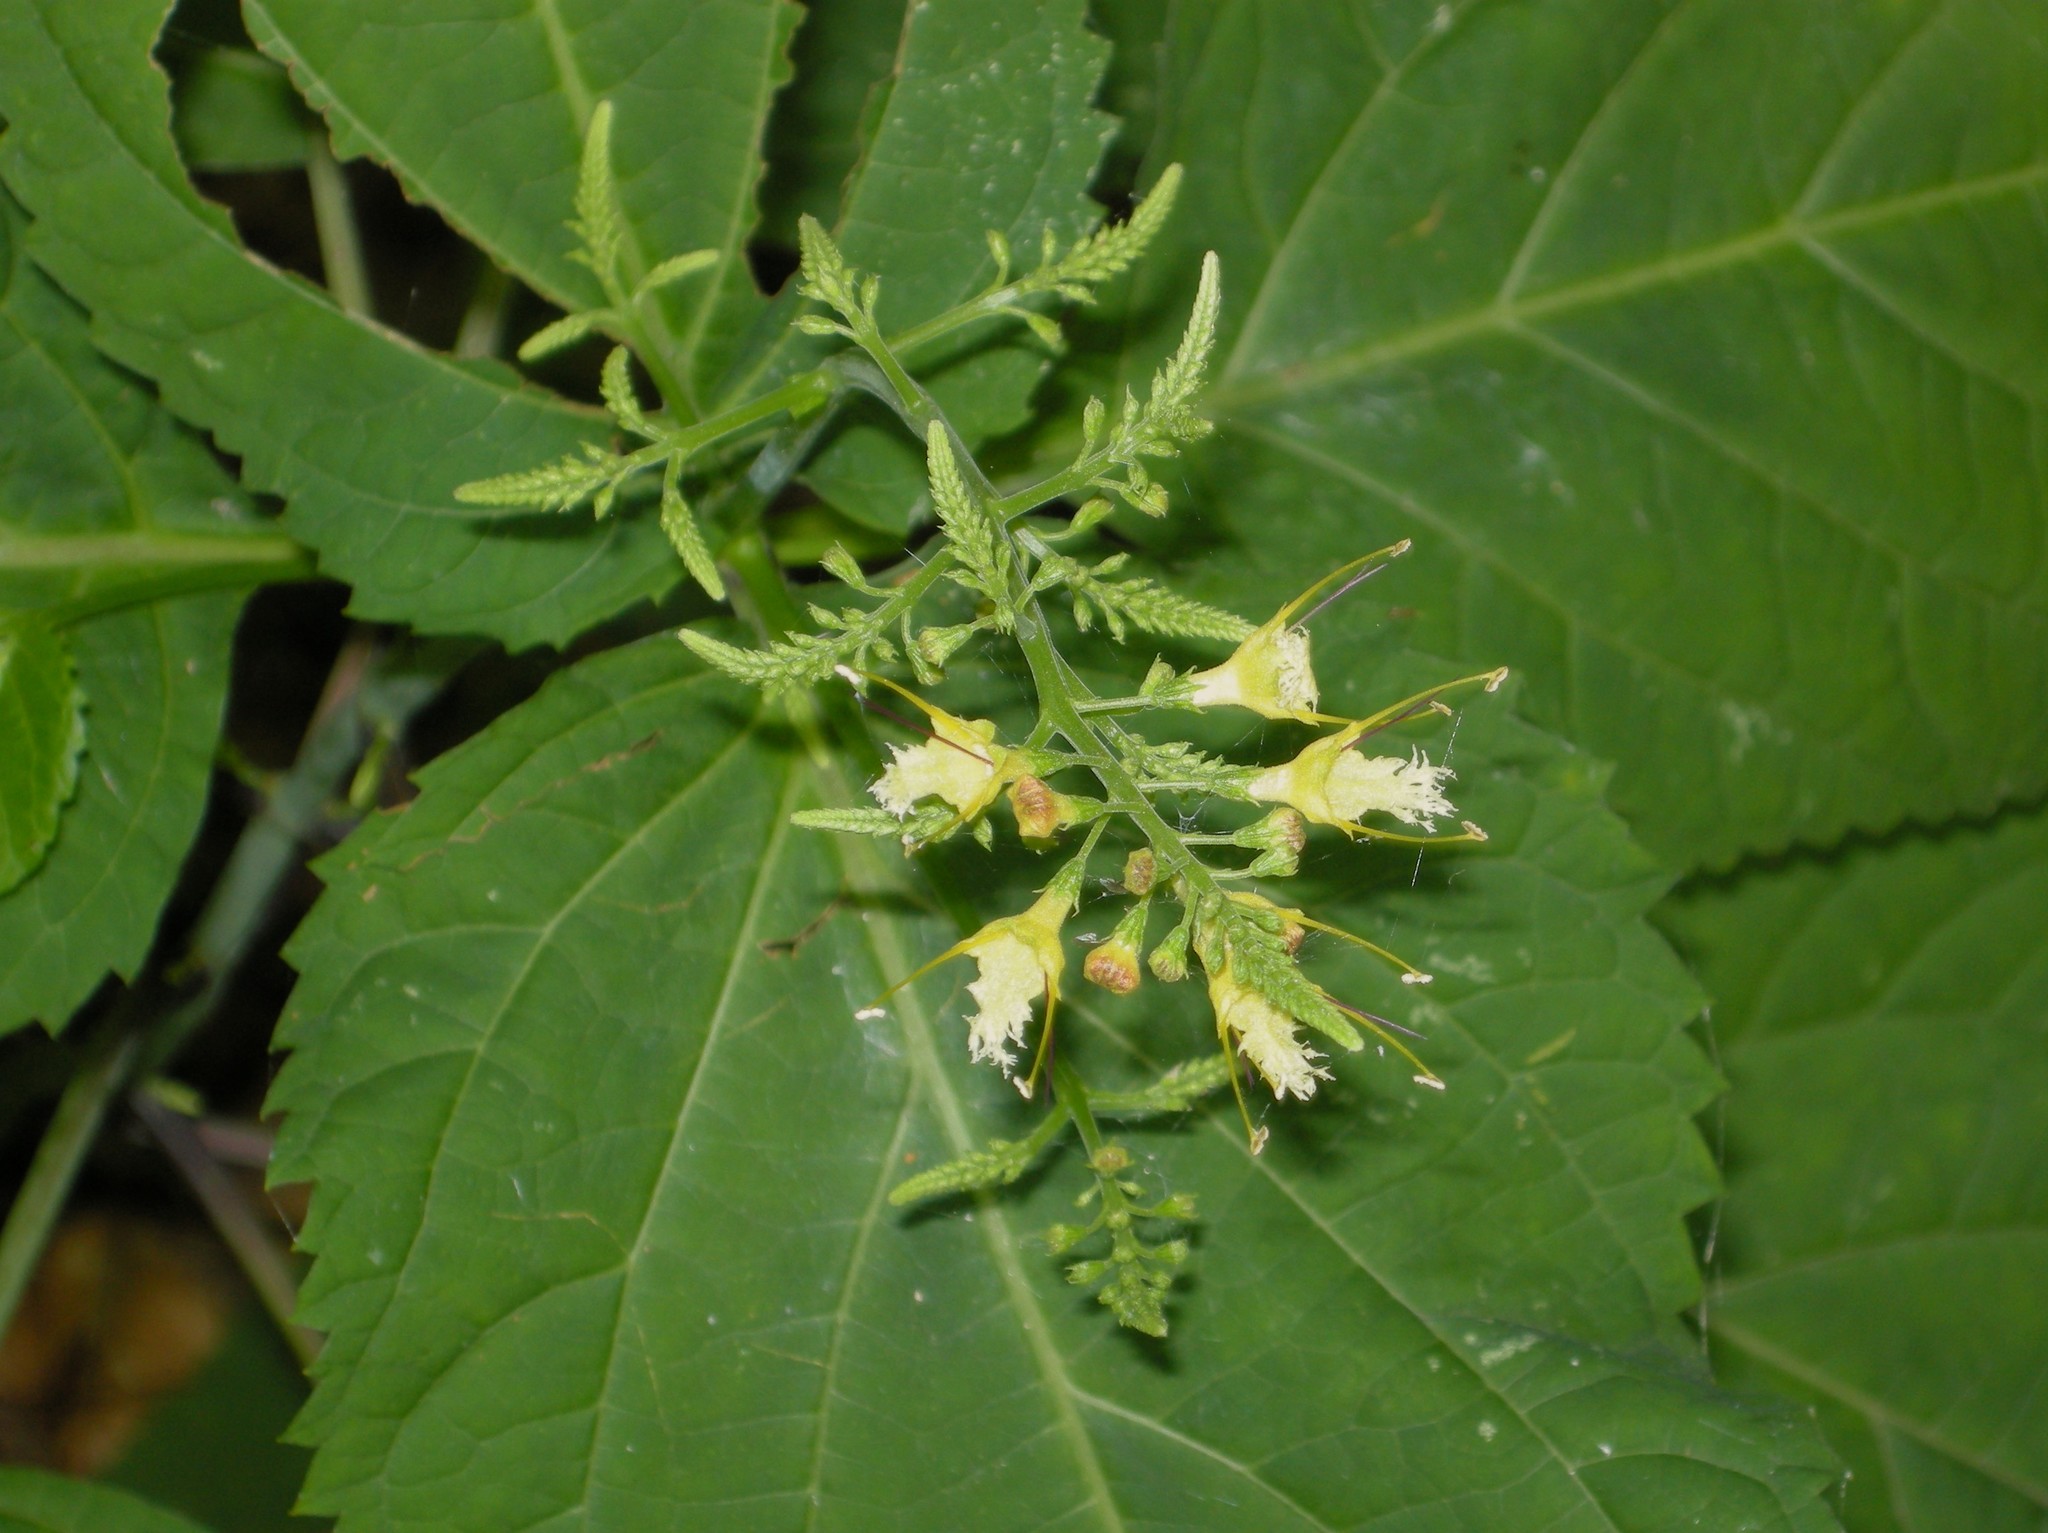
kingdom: Plantae
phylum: Tracheophyta
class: Magnoliopsida
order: Lamiales
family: Lamiaceae
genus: Collinsonia
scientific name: Collinsonia canadensis
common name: Northern horsebalm
